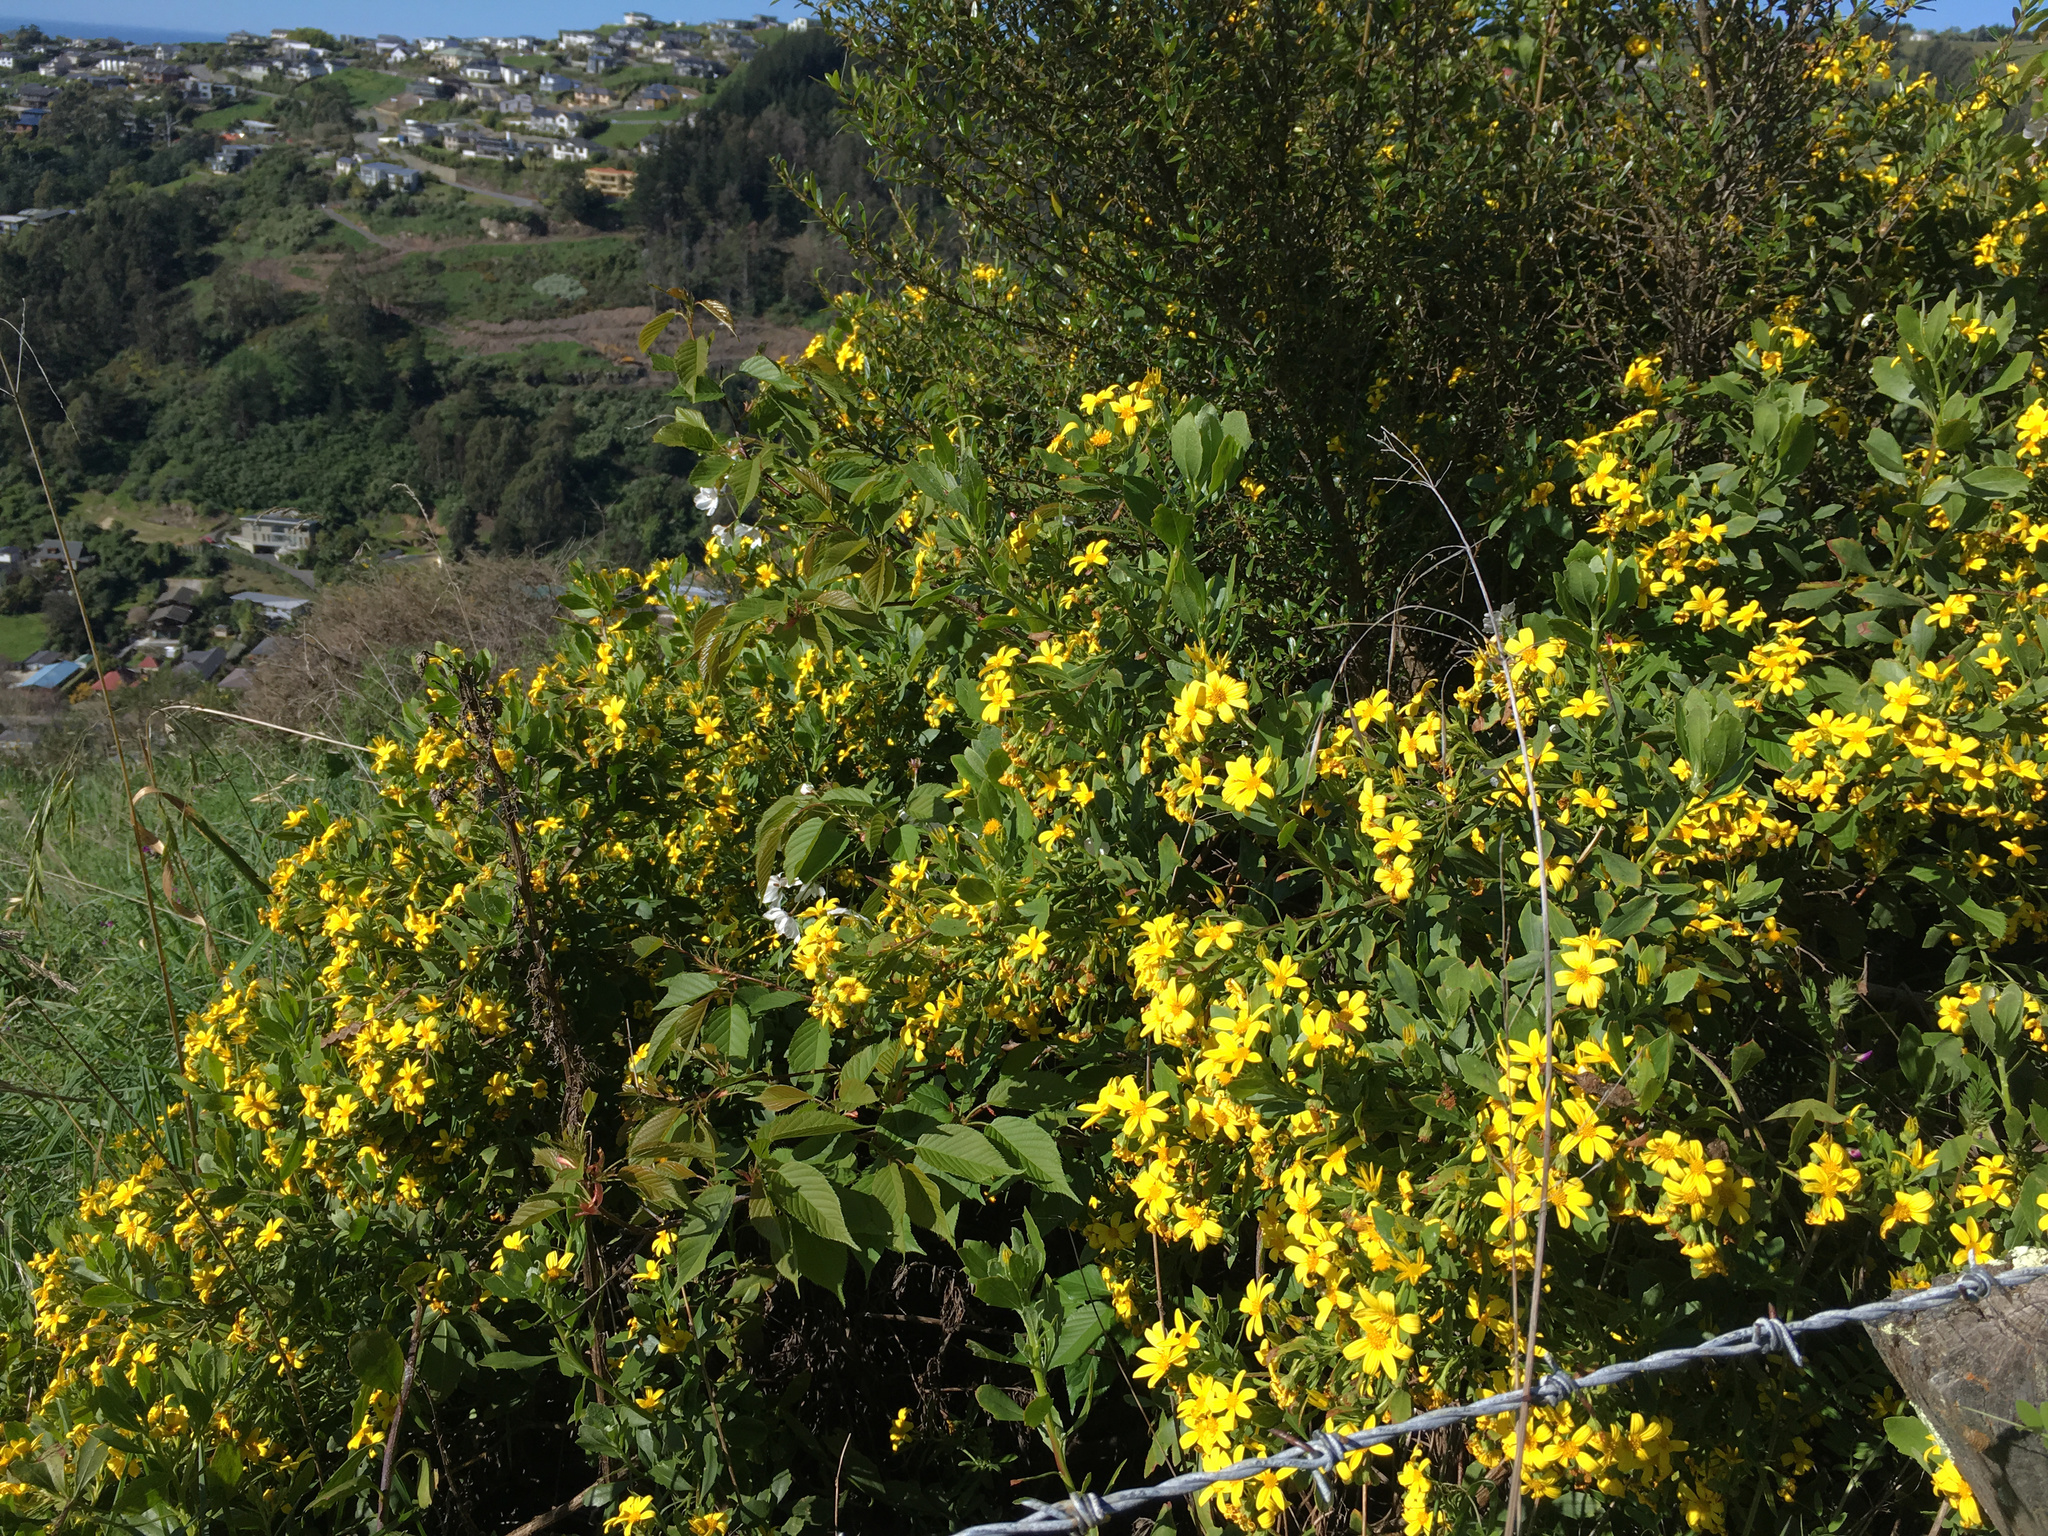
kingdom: Plantae
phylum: Tracheophyta
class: Magnoliopsida
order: Asterales
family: Asteraceae
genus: Osteospermum
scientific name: Osteospermum moniliferum
